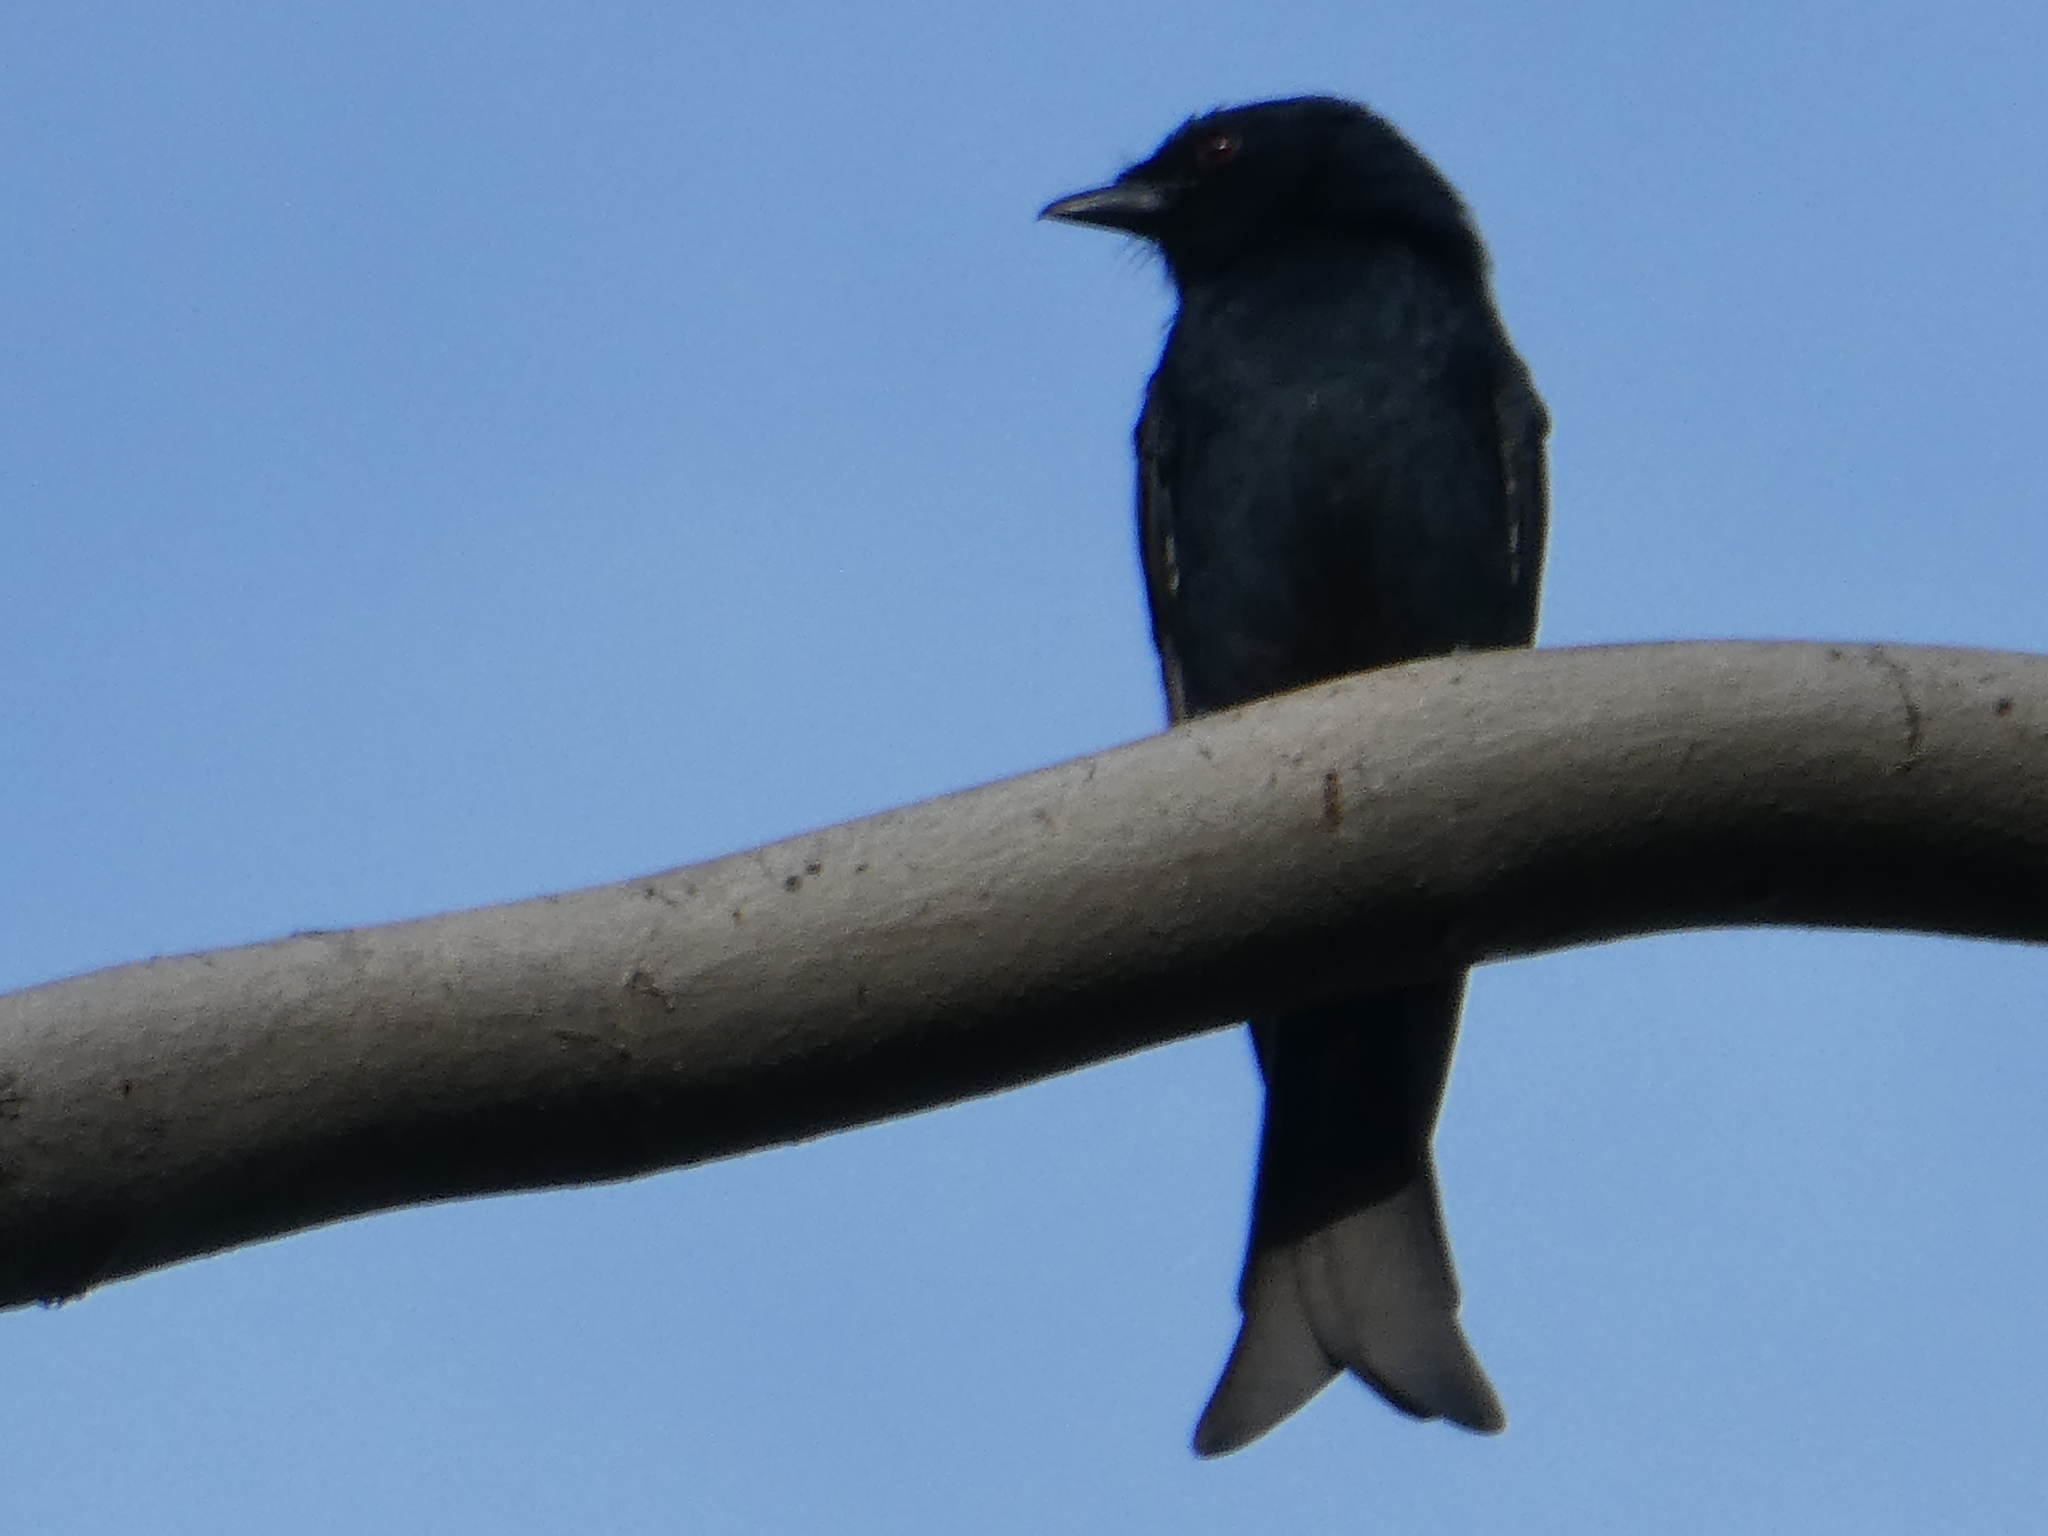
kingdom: Animalia
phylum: Chordata
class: Aves
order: Passeriformes
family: Dicruridae
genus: Dicrurus
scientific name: Dicrurus adsimilis
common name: Fork-tailed drongo
